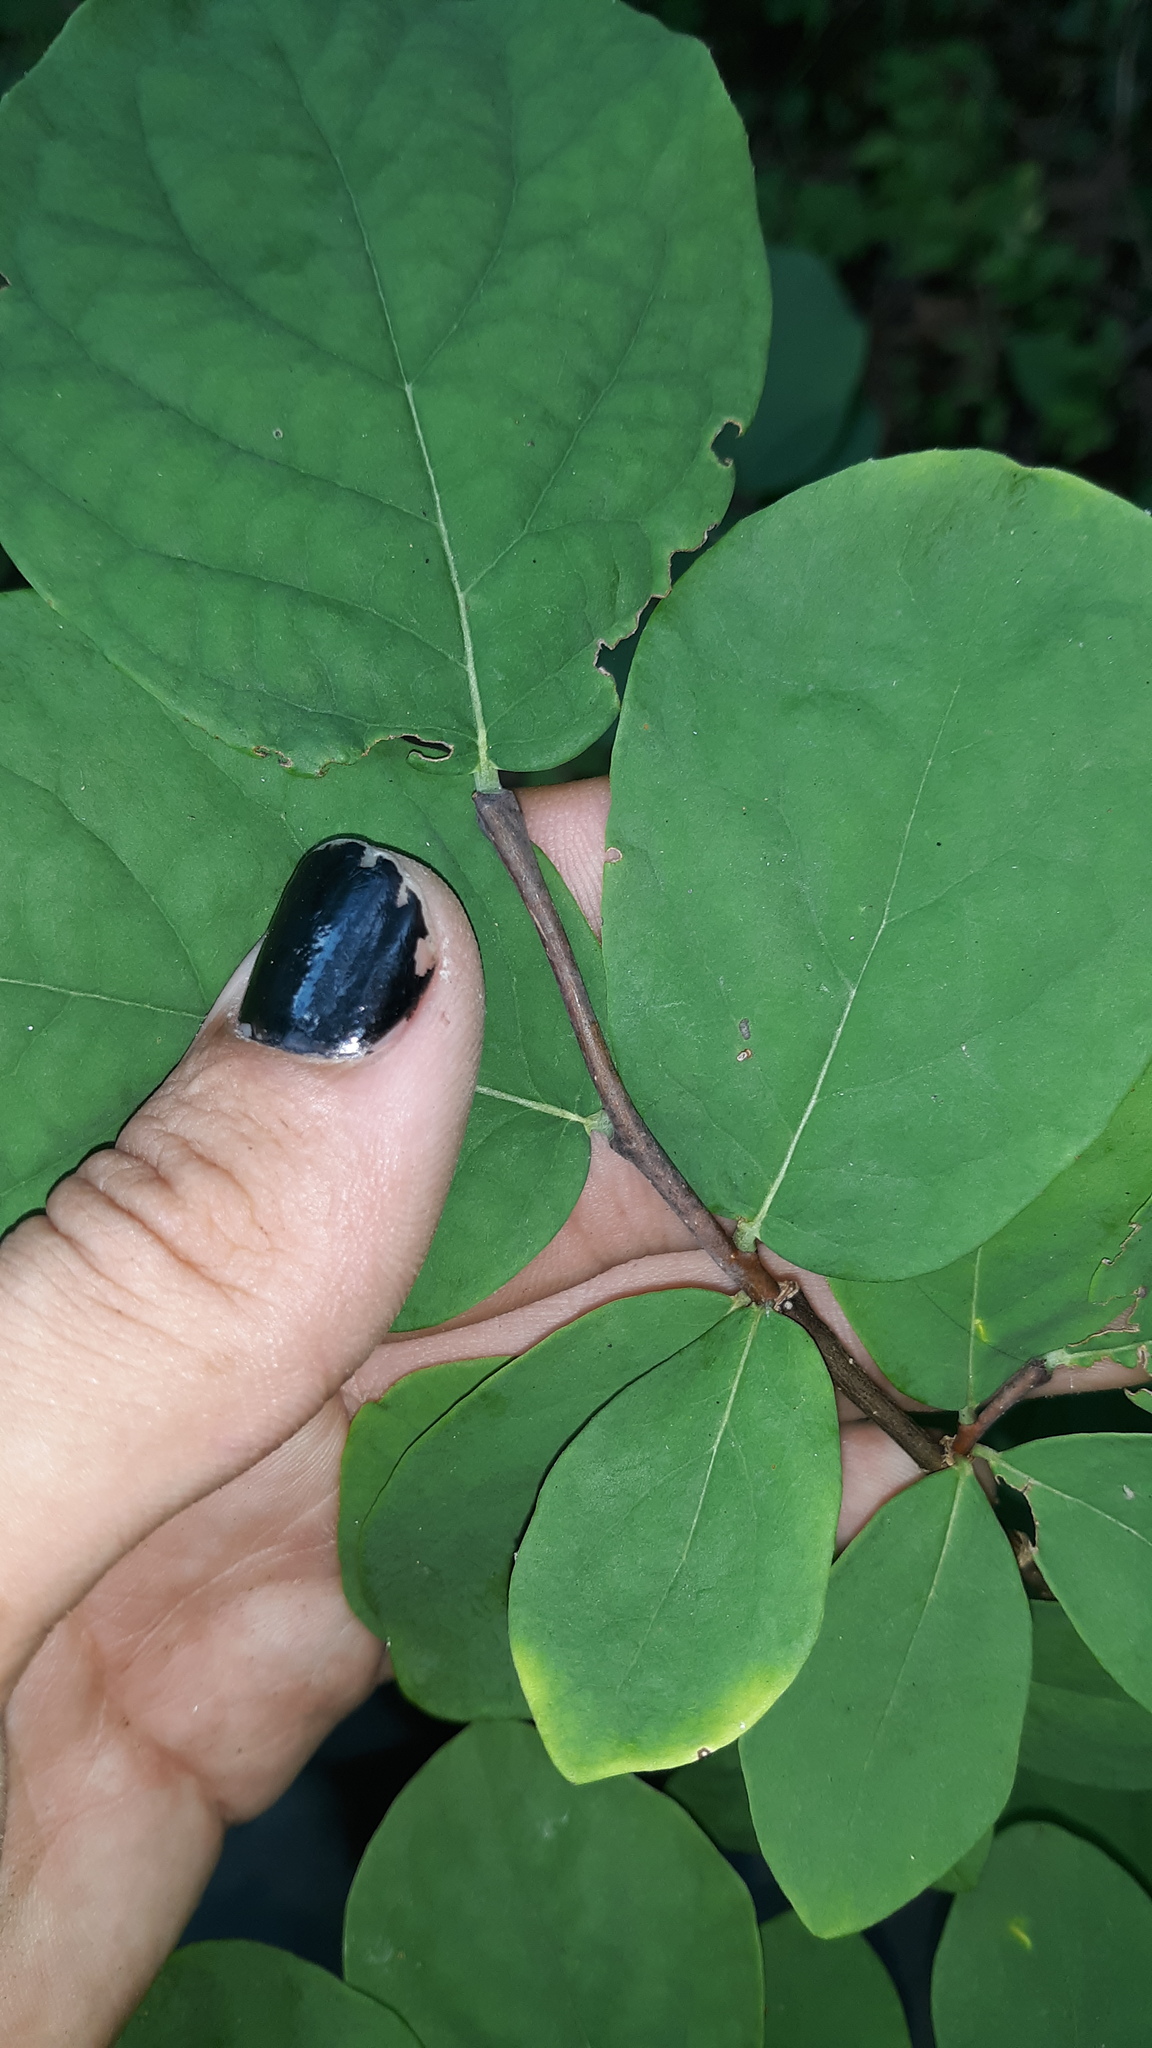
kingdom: Plantae
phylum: Tracheophyta
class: Magnoliopsida
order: Malvales
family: Thymelaeaceae
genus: Dirca
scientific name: Dirca palustris
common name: Leatherwood
